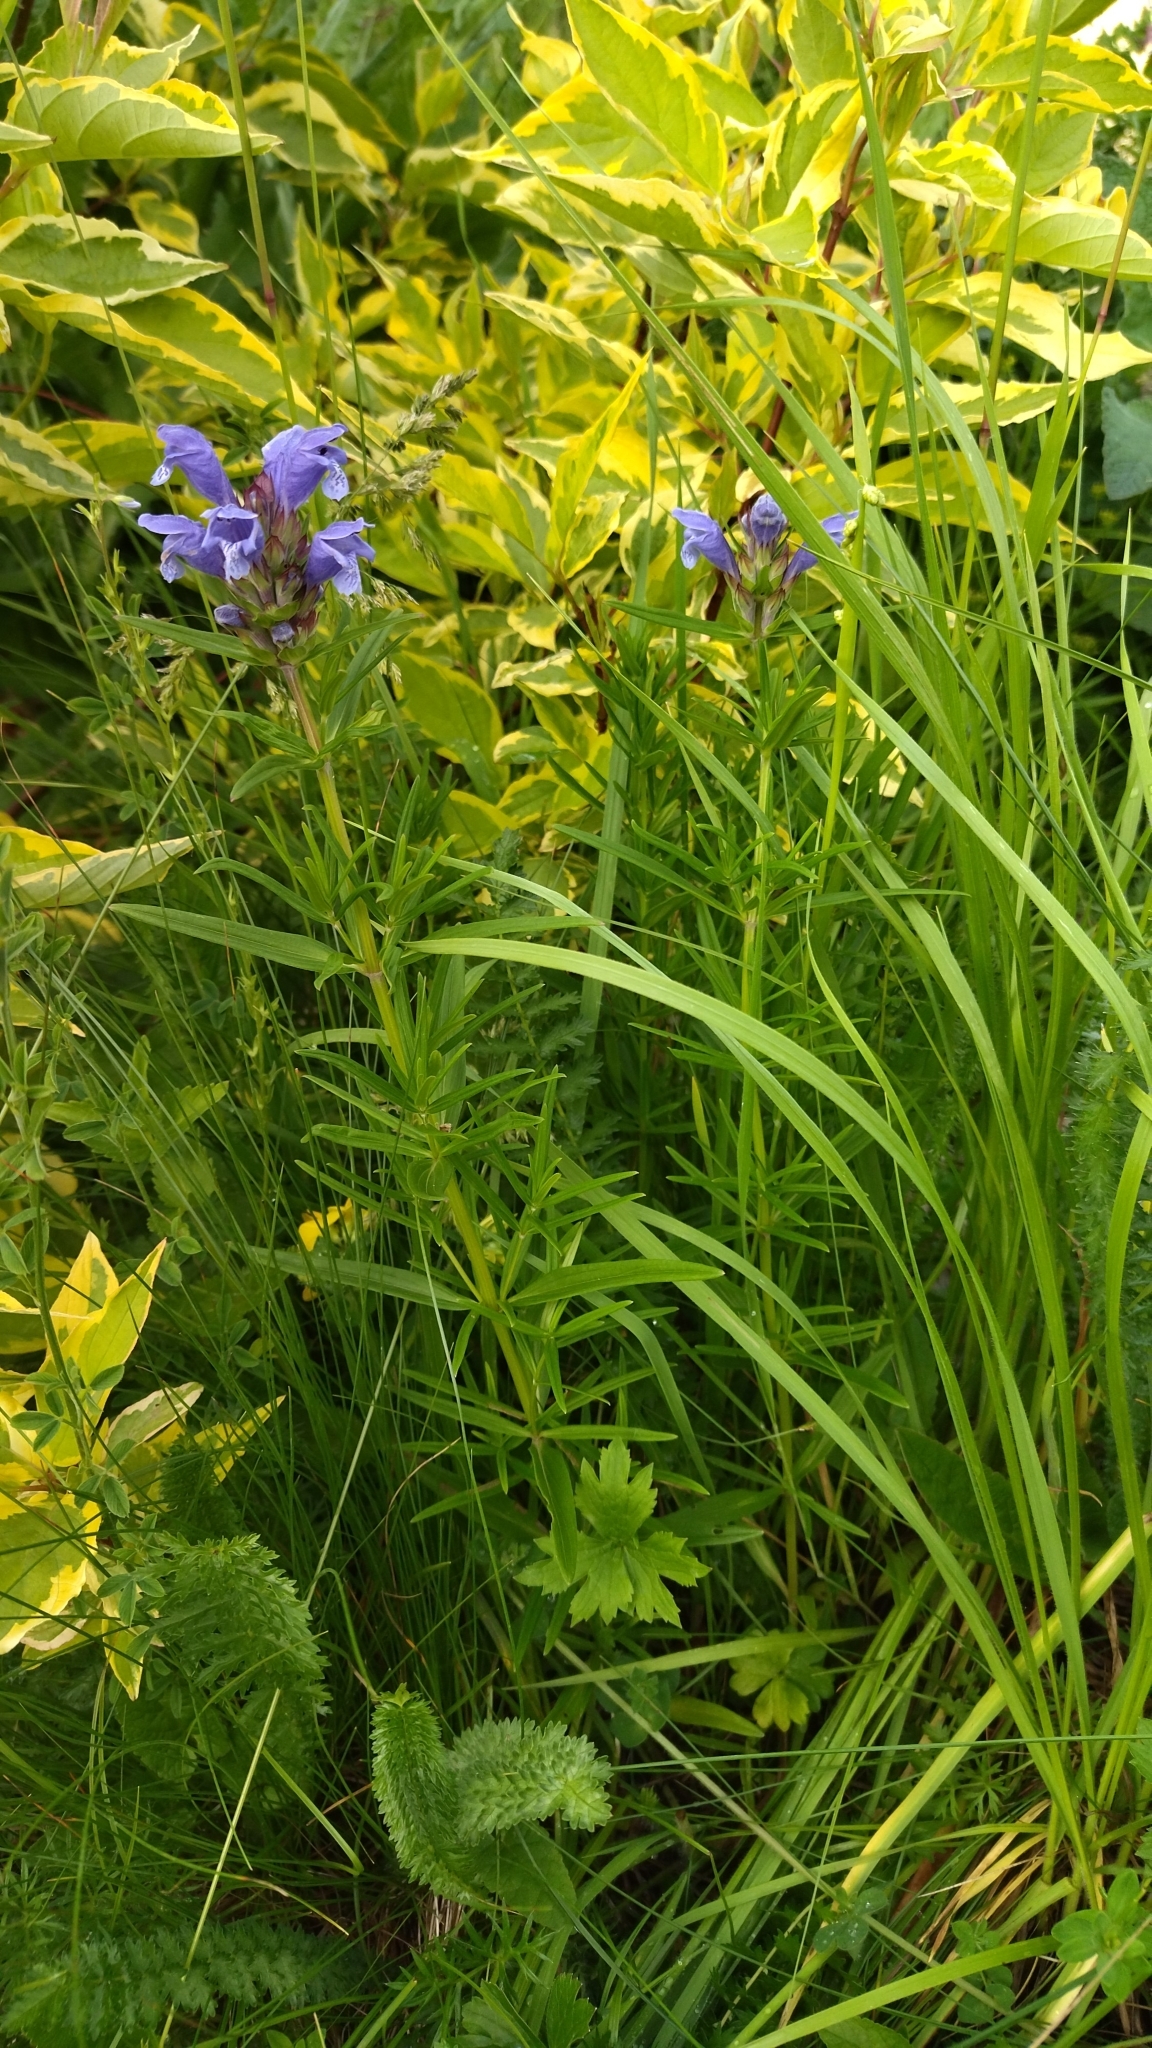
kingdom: Plantae
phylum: Tracheophyta
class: Magnoliopsida
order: Lamiales
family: Lamiaceae
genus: Dracocephalum
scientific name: Dracocephalum ruyschiana
